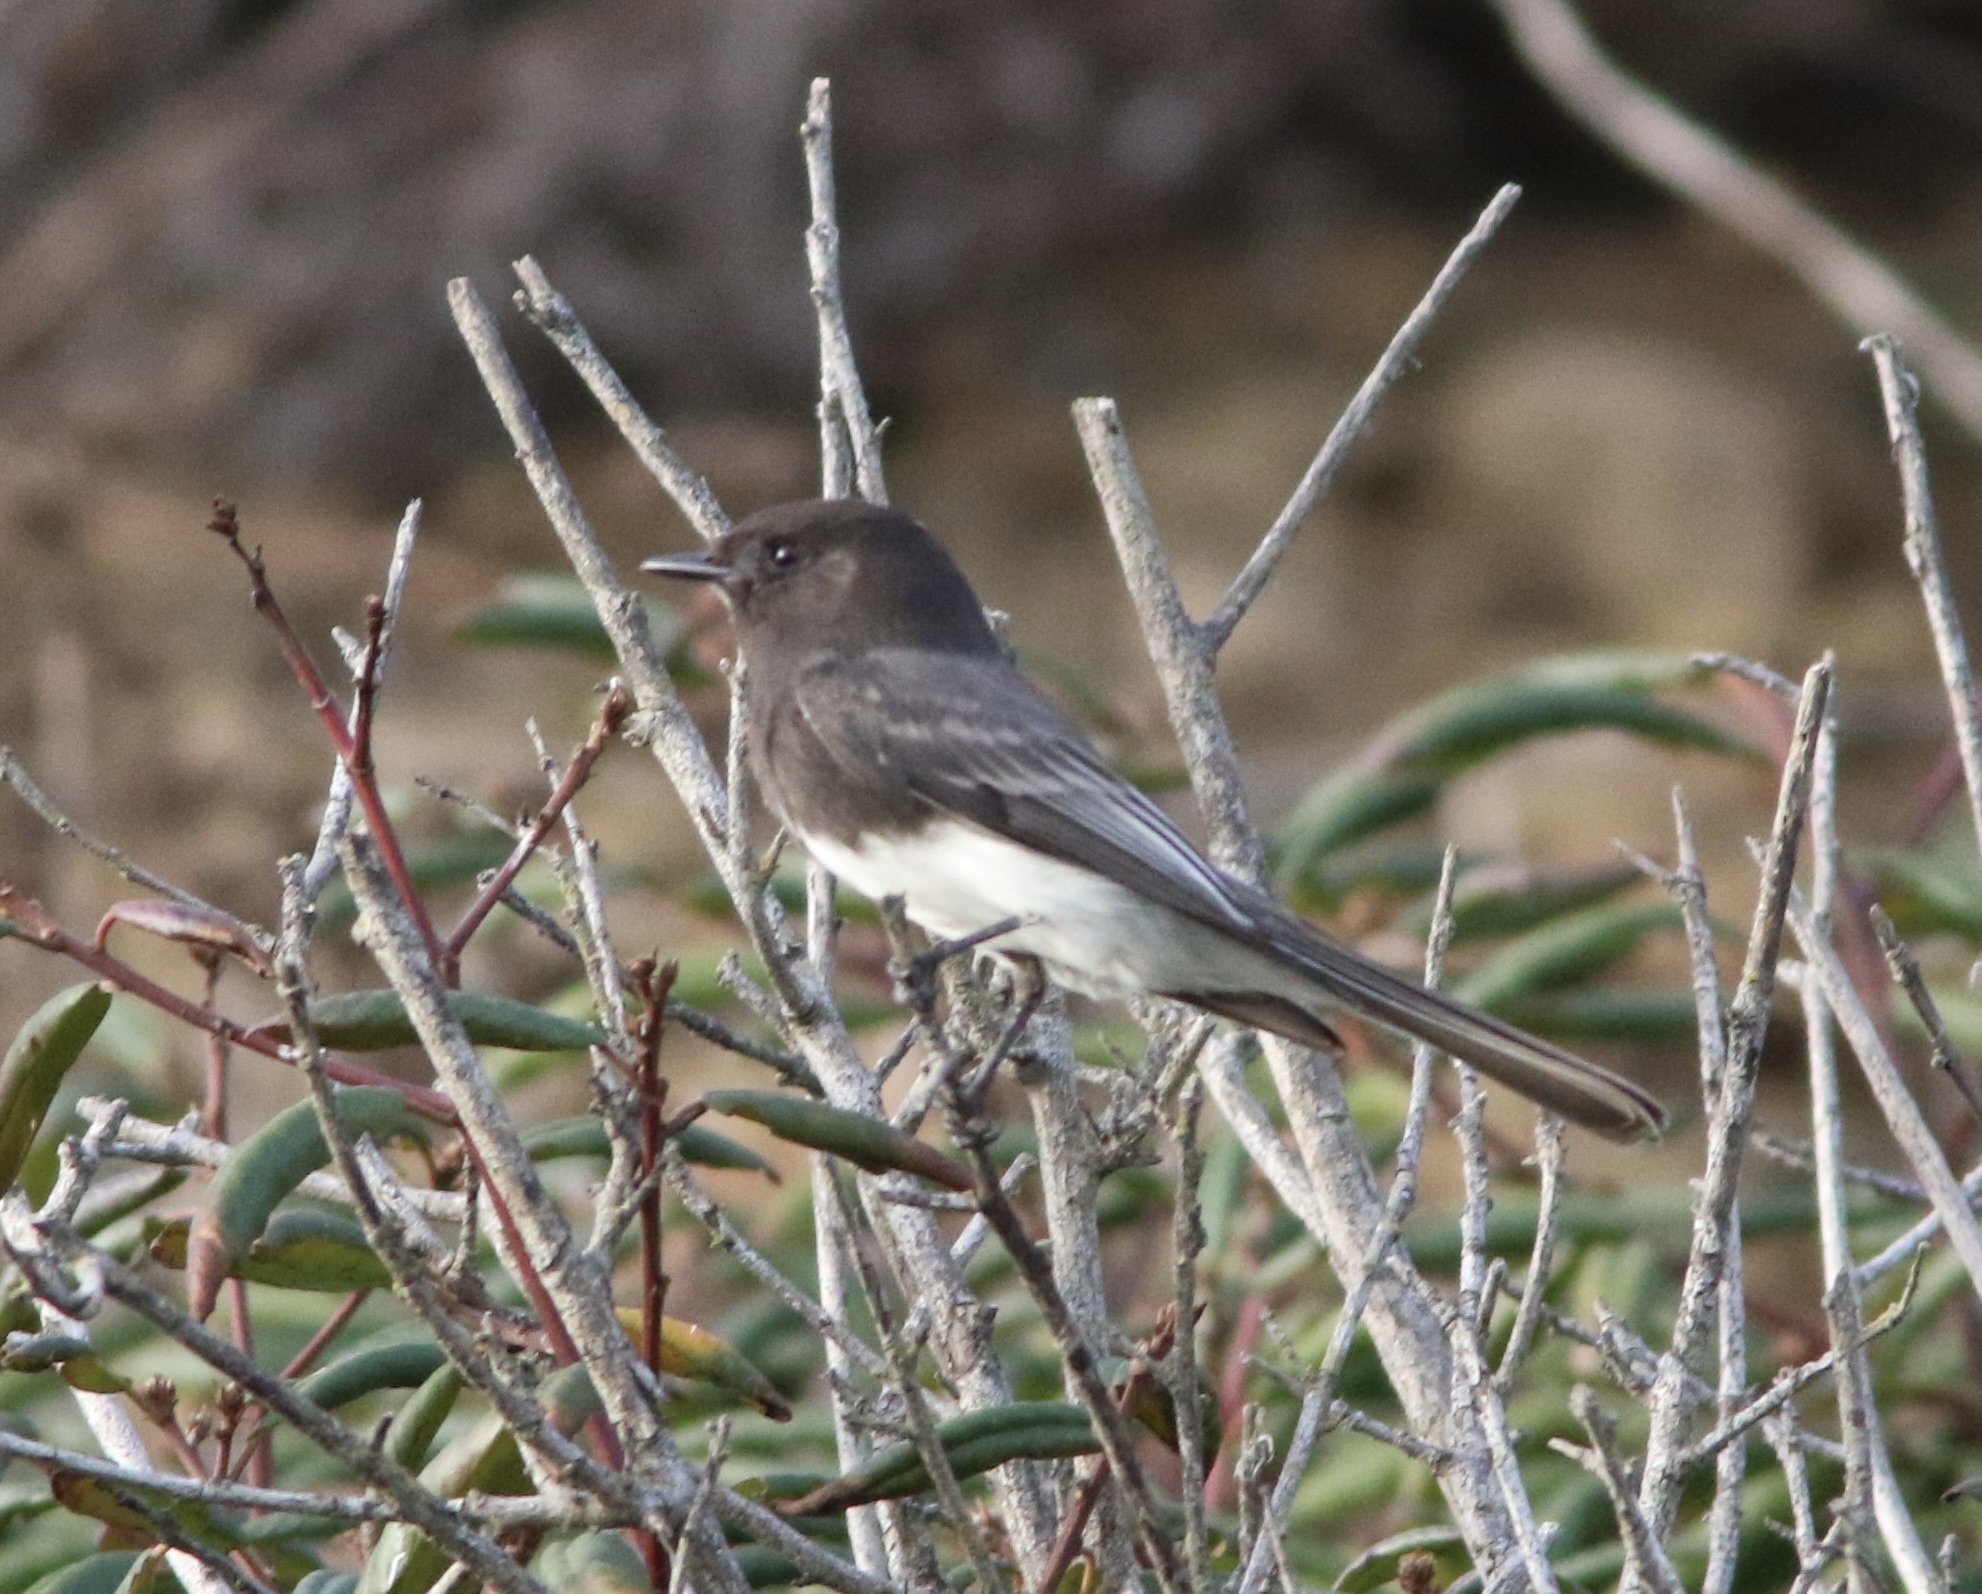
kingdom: Animalia
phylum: Chordata
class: Aves
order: Passeriformes
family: Tyrannidae
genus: Sayornis
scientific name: Sayornis nigricans
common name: Black phoebe
